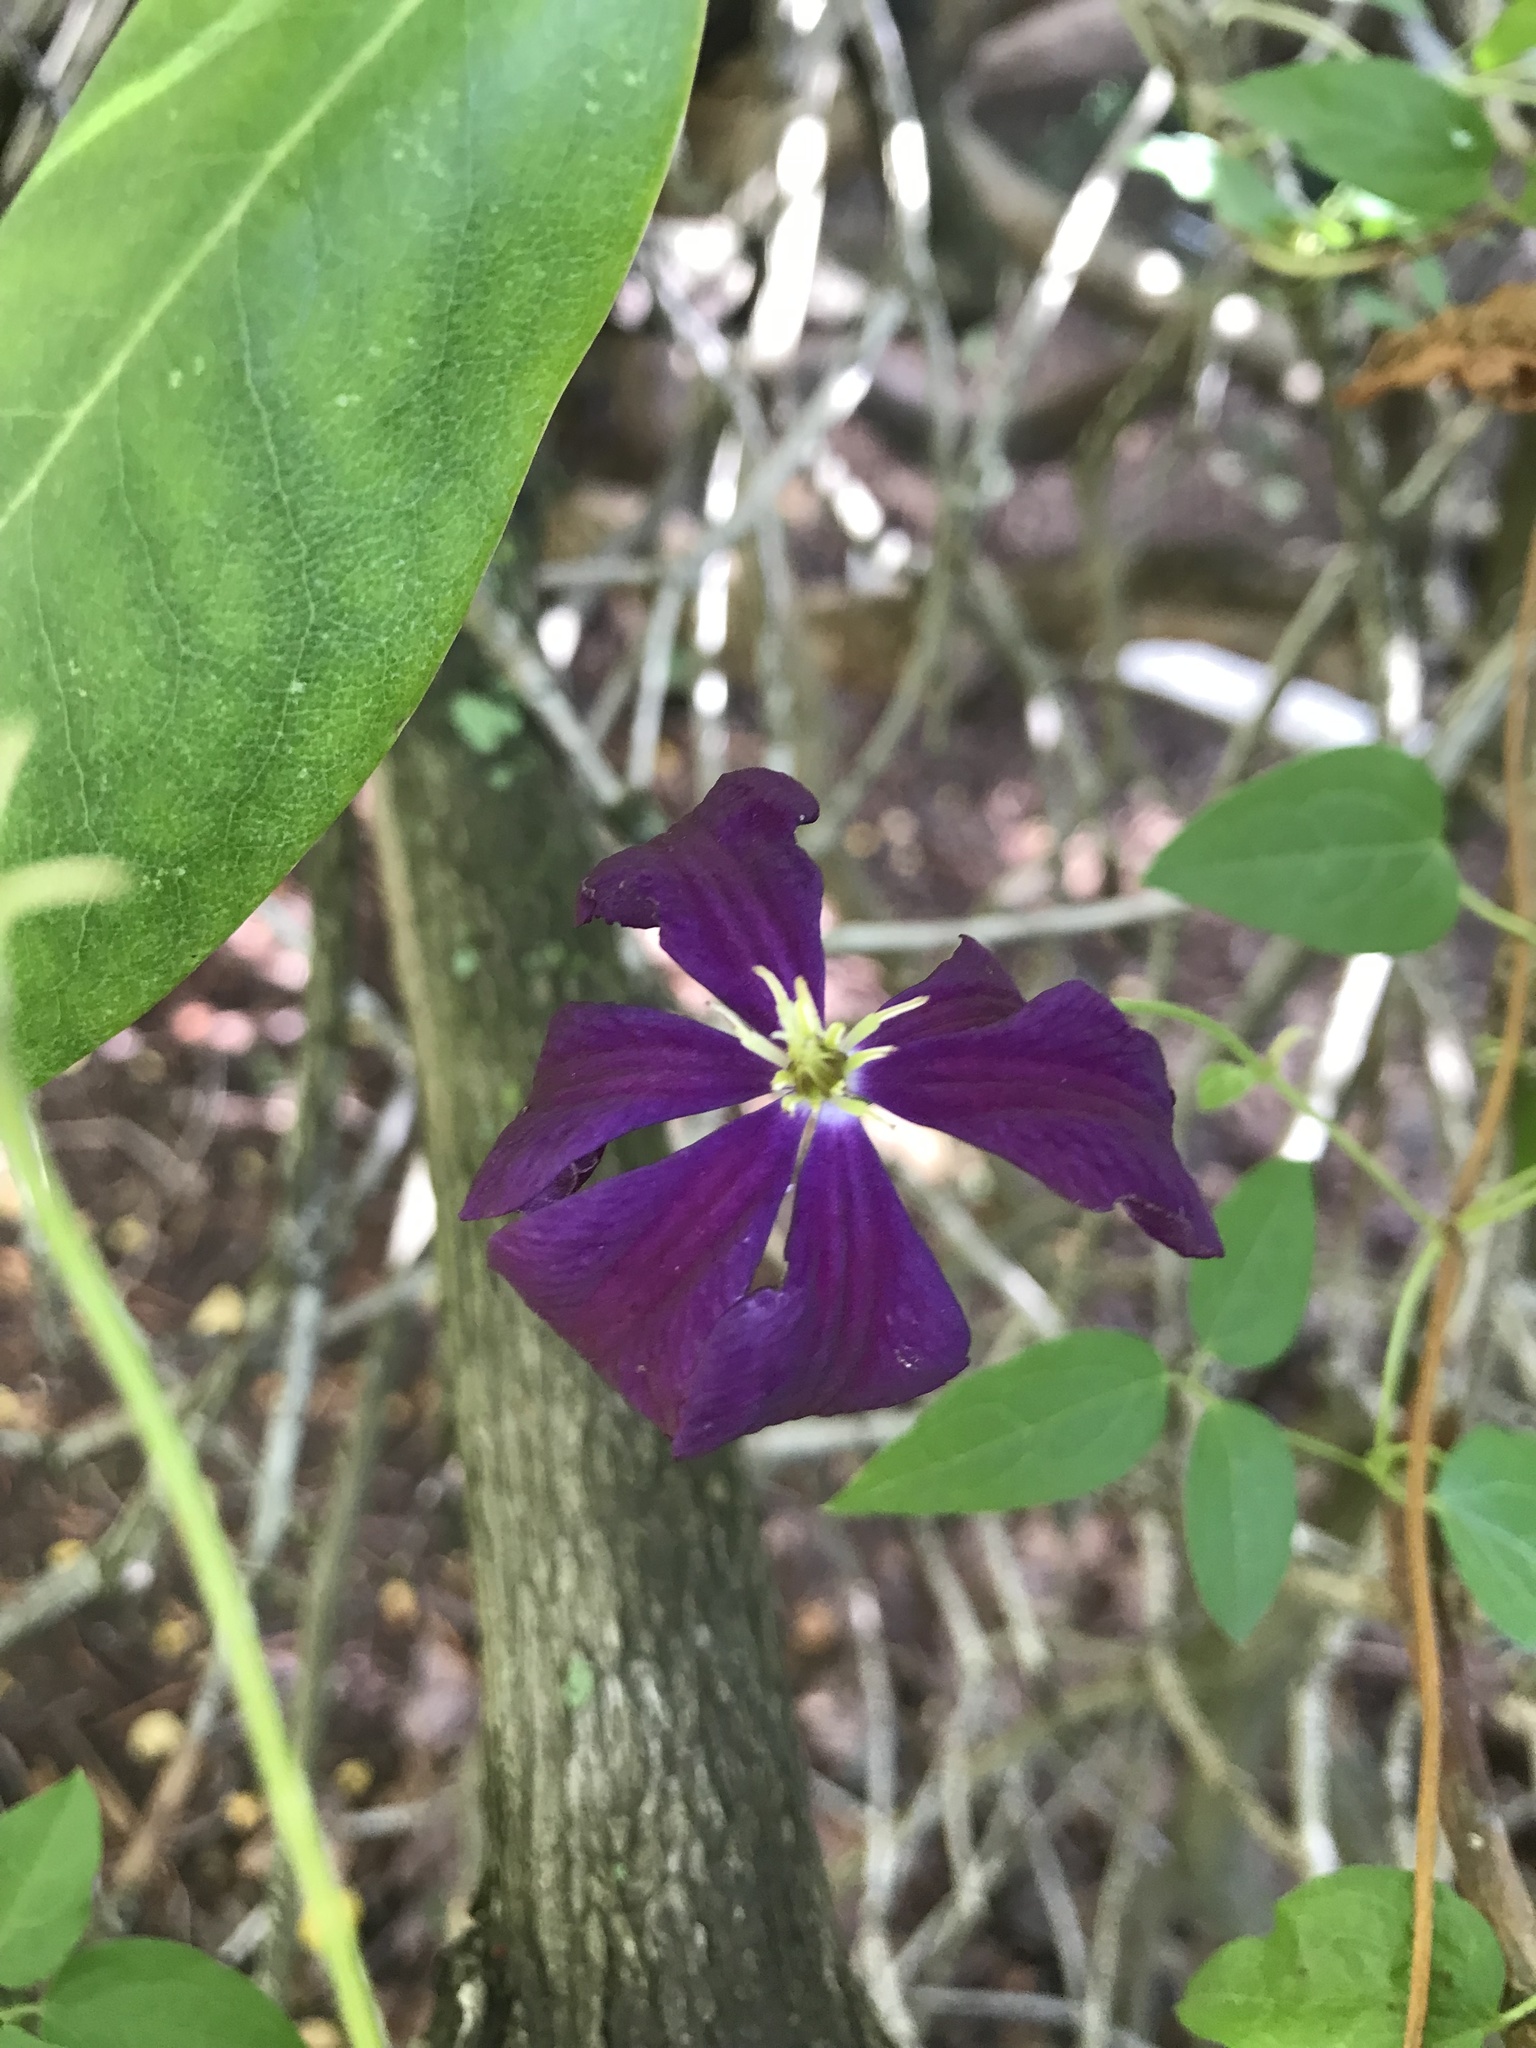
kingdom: Plantae
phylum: Tracheophyta
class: Magnoliopsida
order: Ranunculales
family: Ranunculaceae
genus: Clematis
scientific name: Clematis
